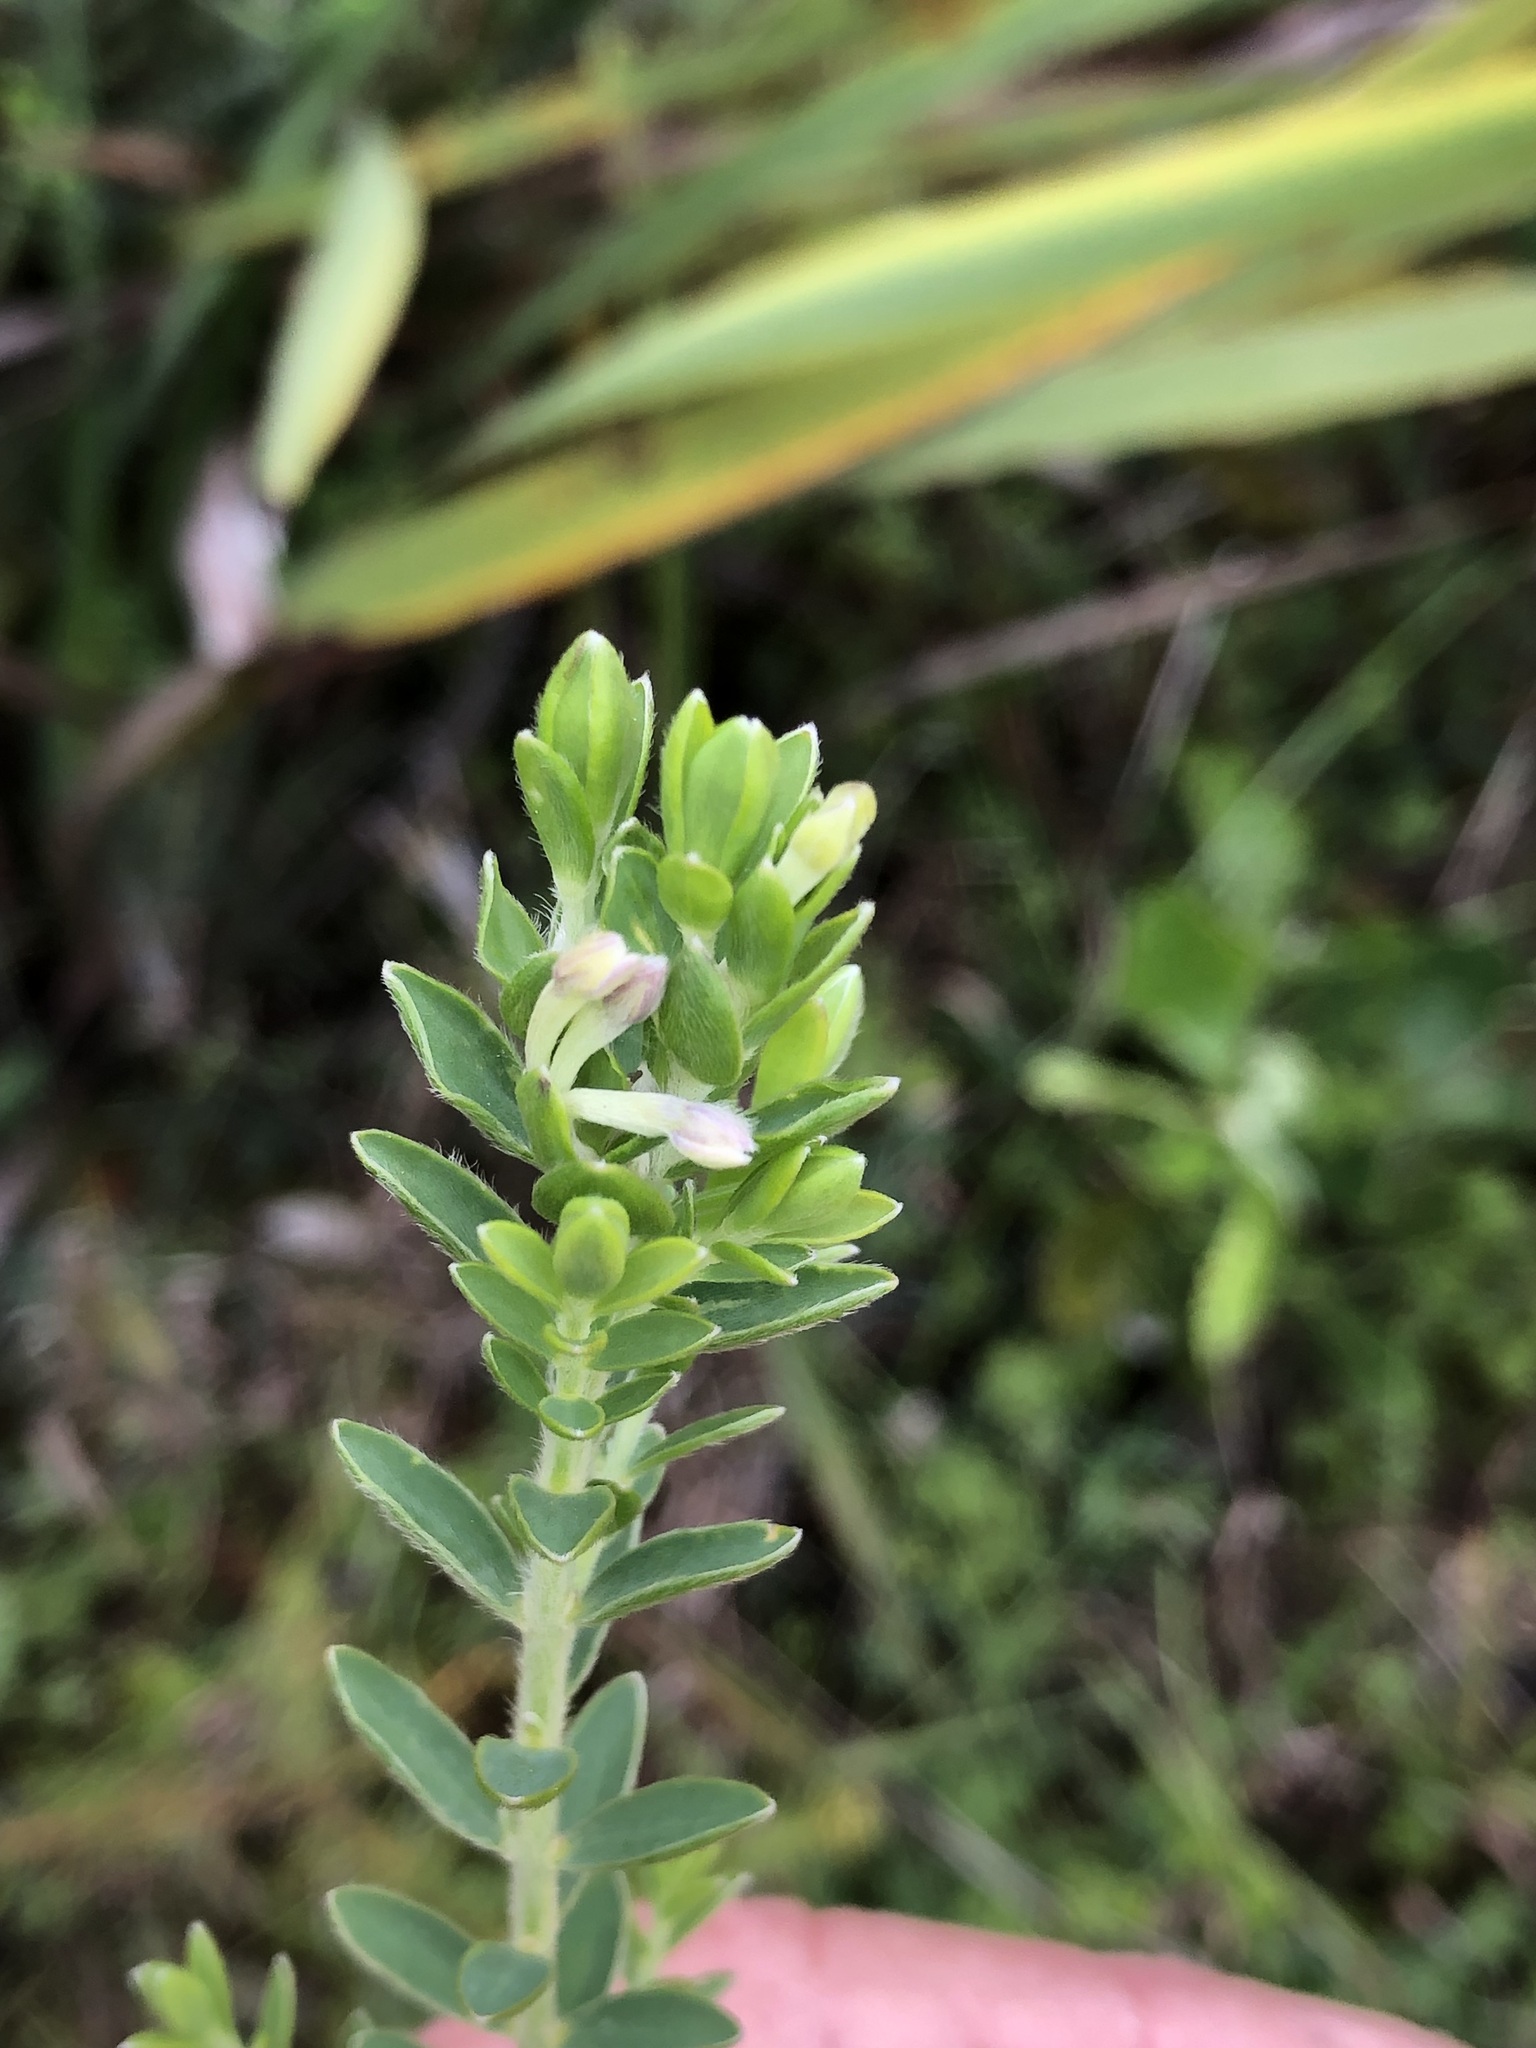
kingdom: Plantae
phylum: Tracheophyta
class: Magnoliopsida
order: Malvales
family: Thymelaeaceae
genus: Gnidia
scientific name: Gnidia sericea
